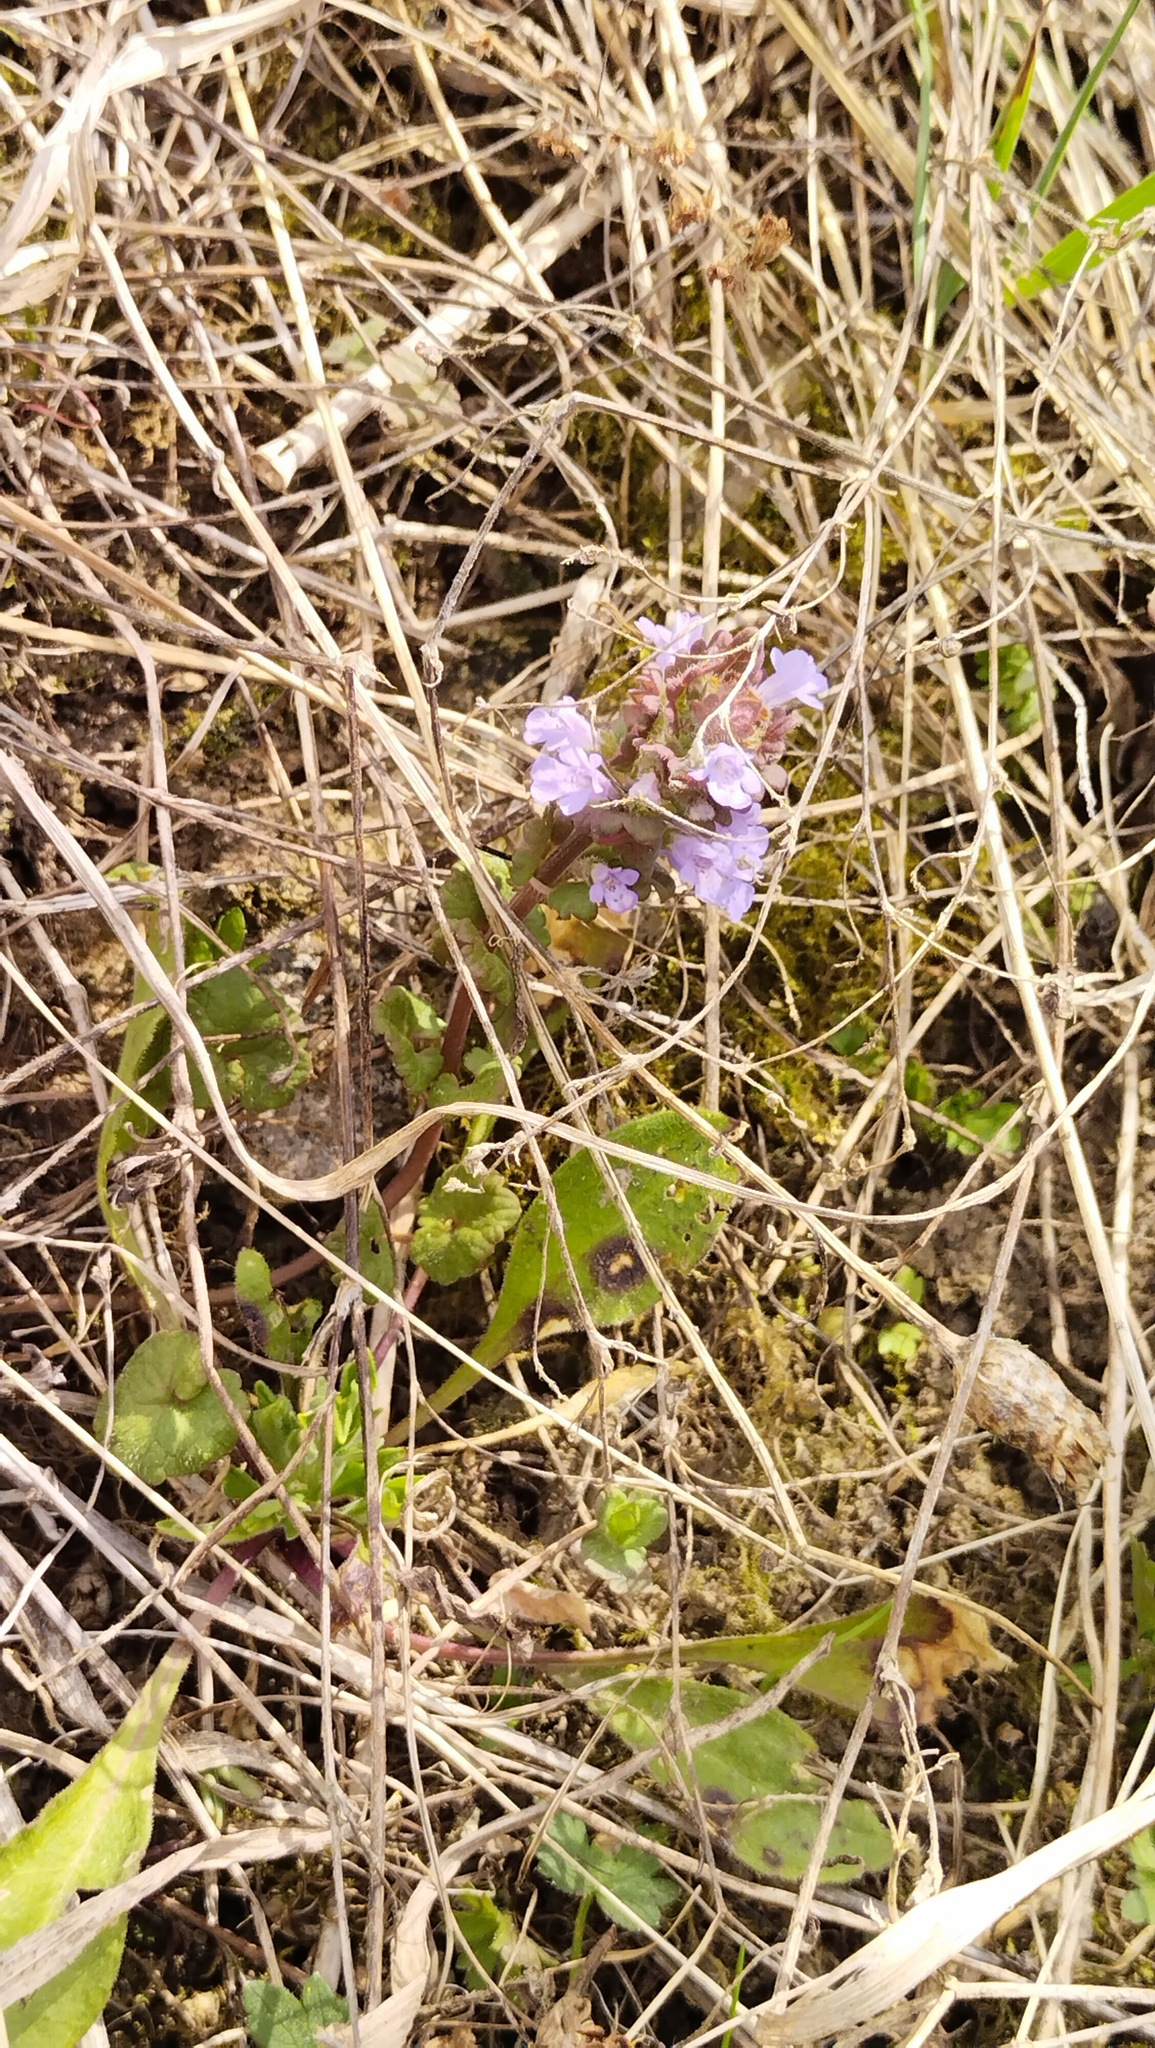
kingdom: Plantae
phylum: Tracheophyta
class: Magnoliopsida
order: Lamiales
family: Lamiaceae
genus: Glechoma
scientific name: Glechoma hederacea
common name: Ground ivy
